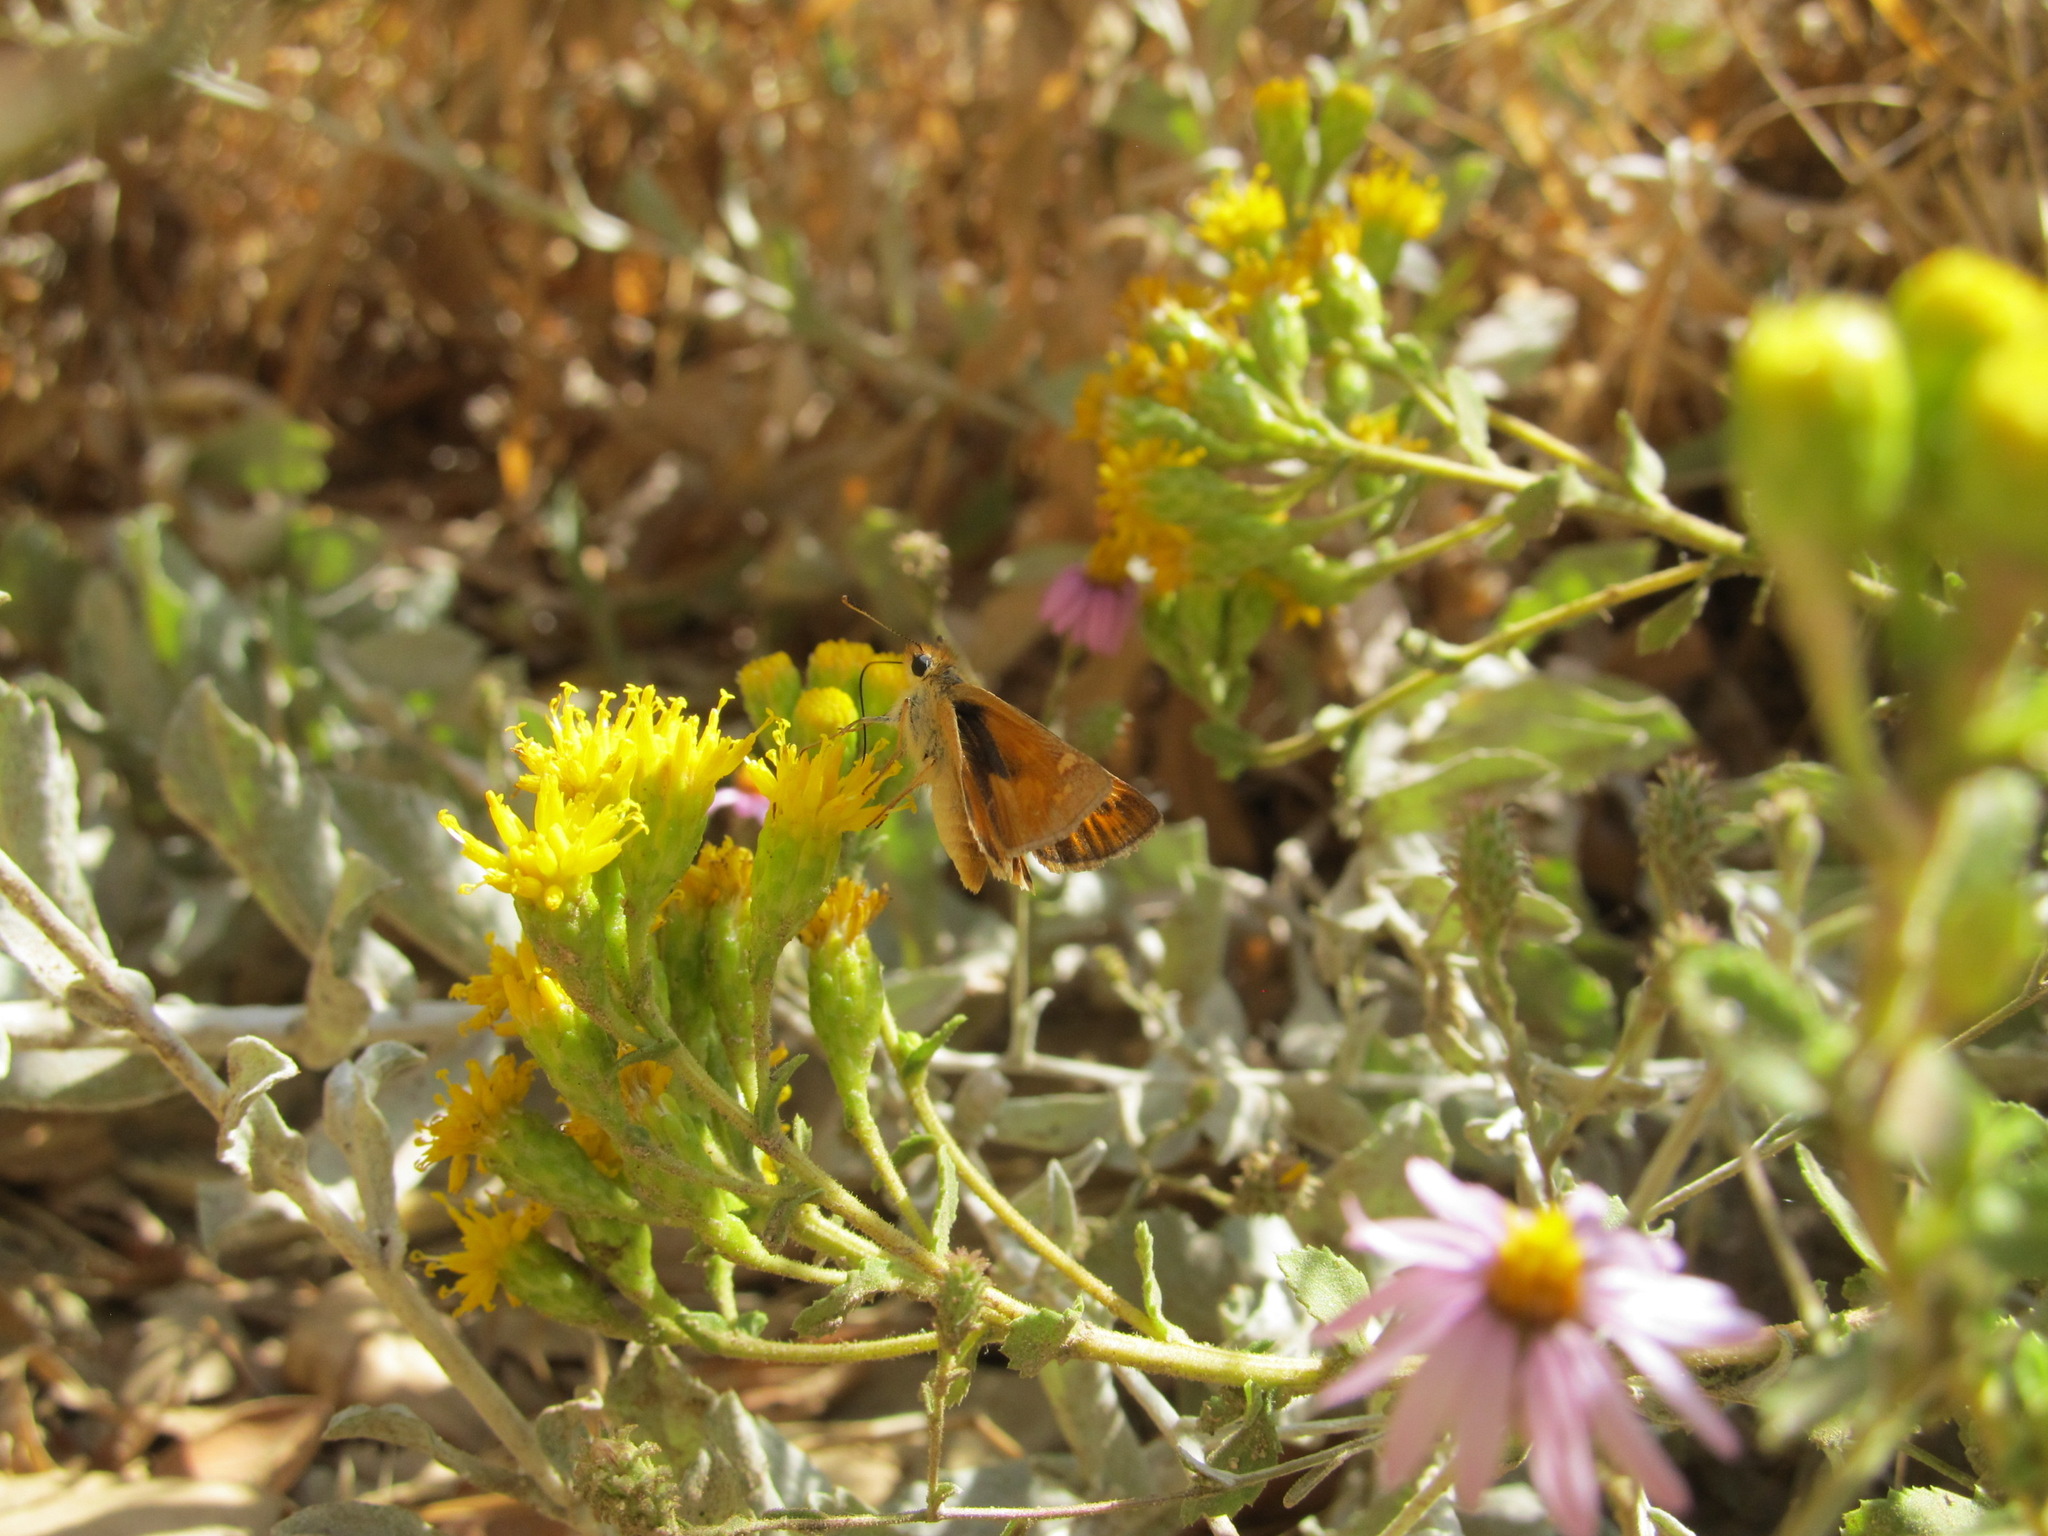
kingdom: Animalia
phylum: Arthropoda
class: Insecta
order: Lepidoptera
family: Hesperiidae
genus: Ochlodes
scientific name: Ochlodes sylvanoides
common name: Woodland skipper
